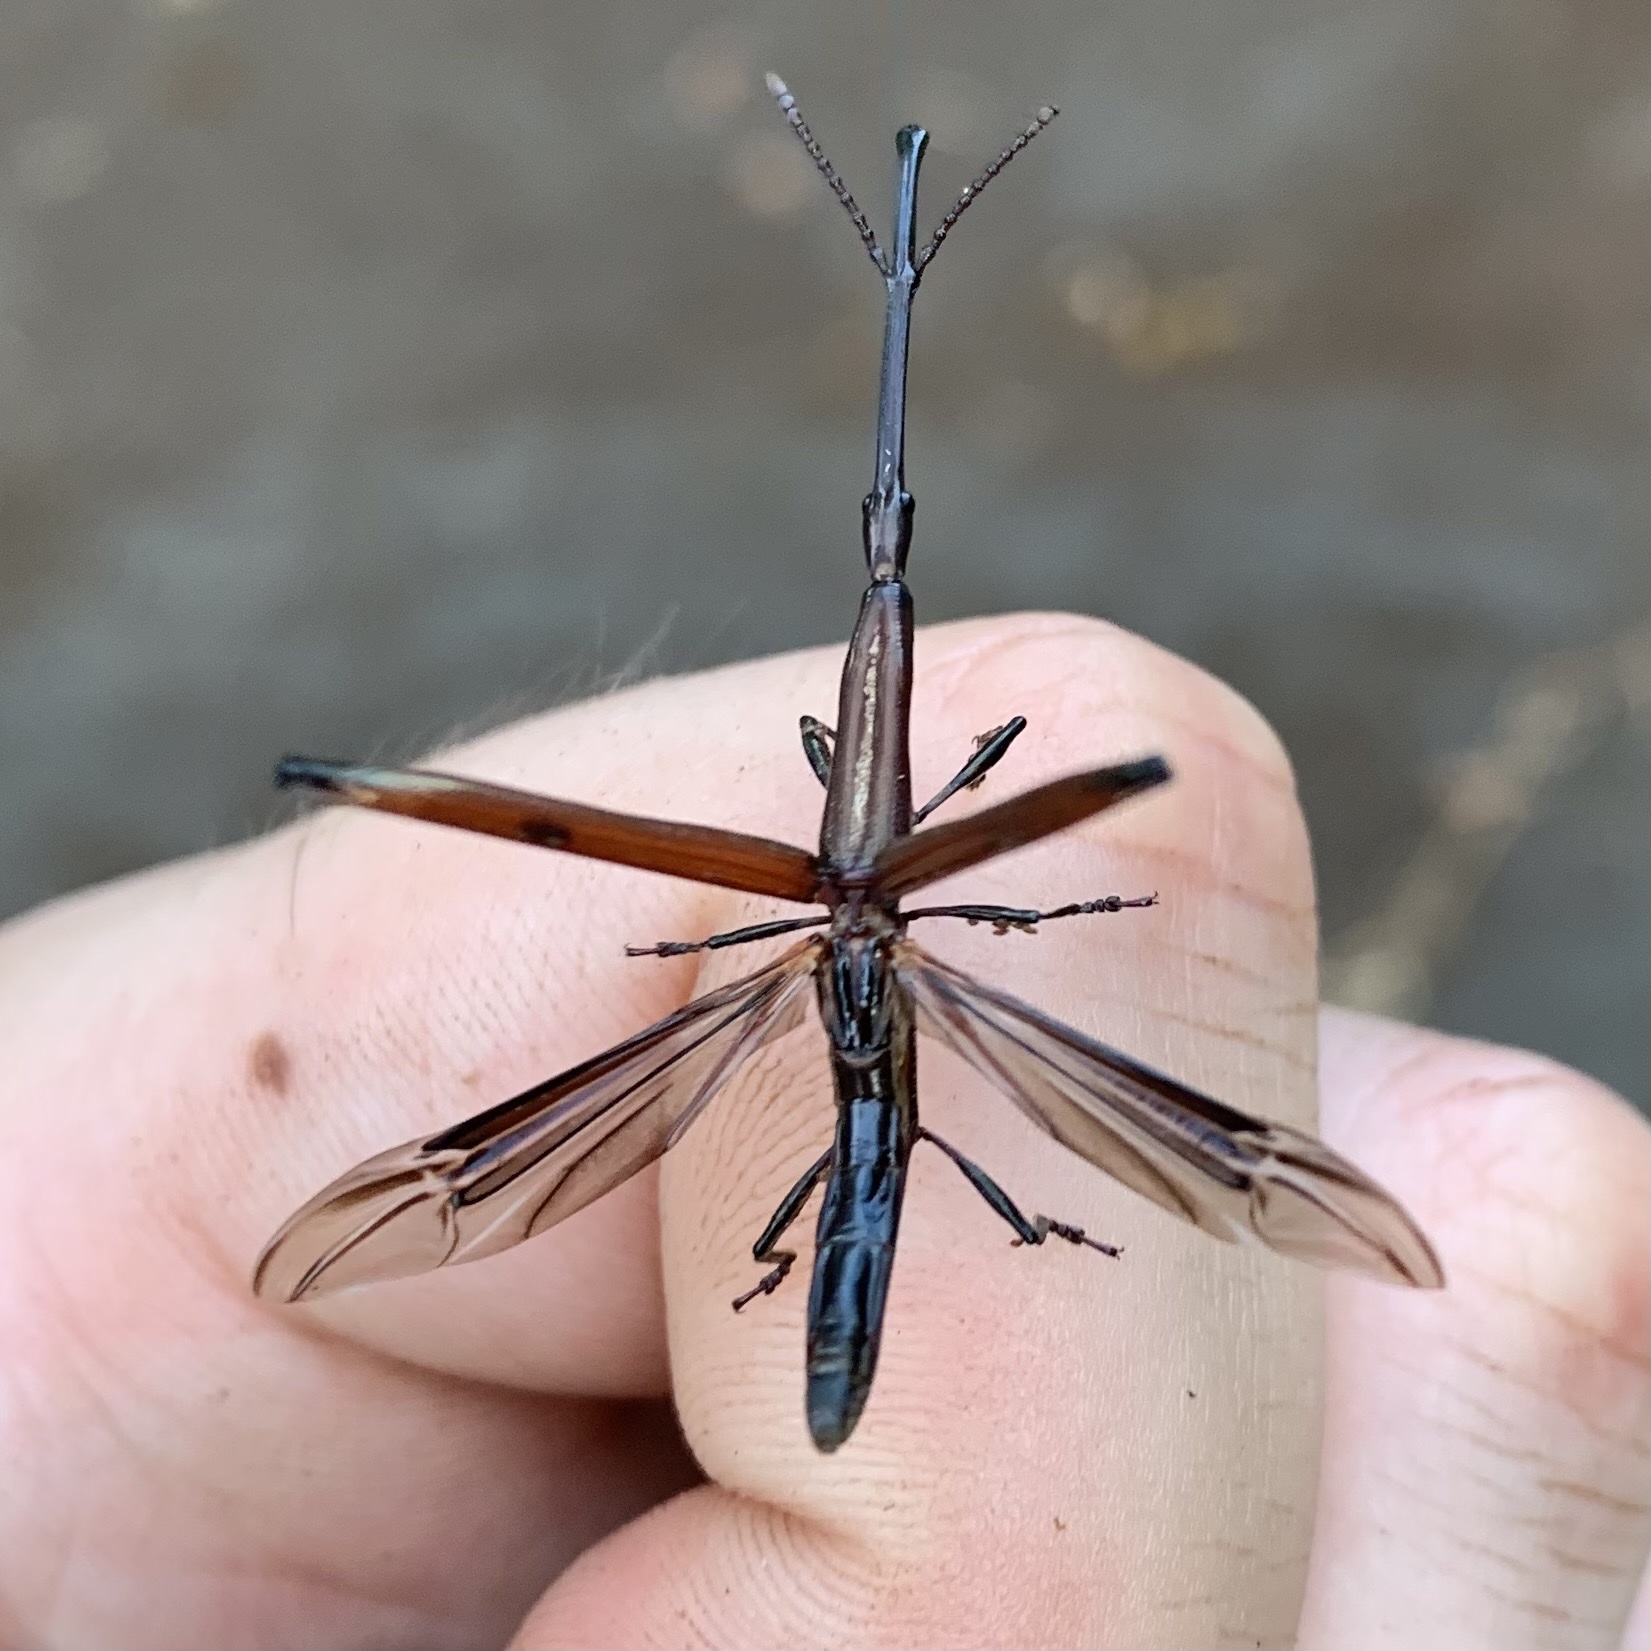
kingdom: Animalia
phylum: Arthropoda
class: Insecta
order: Coleoptera
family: Brentidae
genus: Eubactrus
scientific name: Eubactrus semiaeneus
